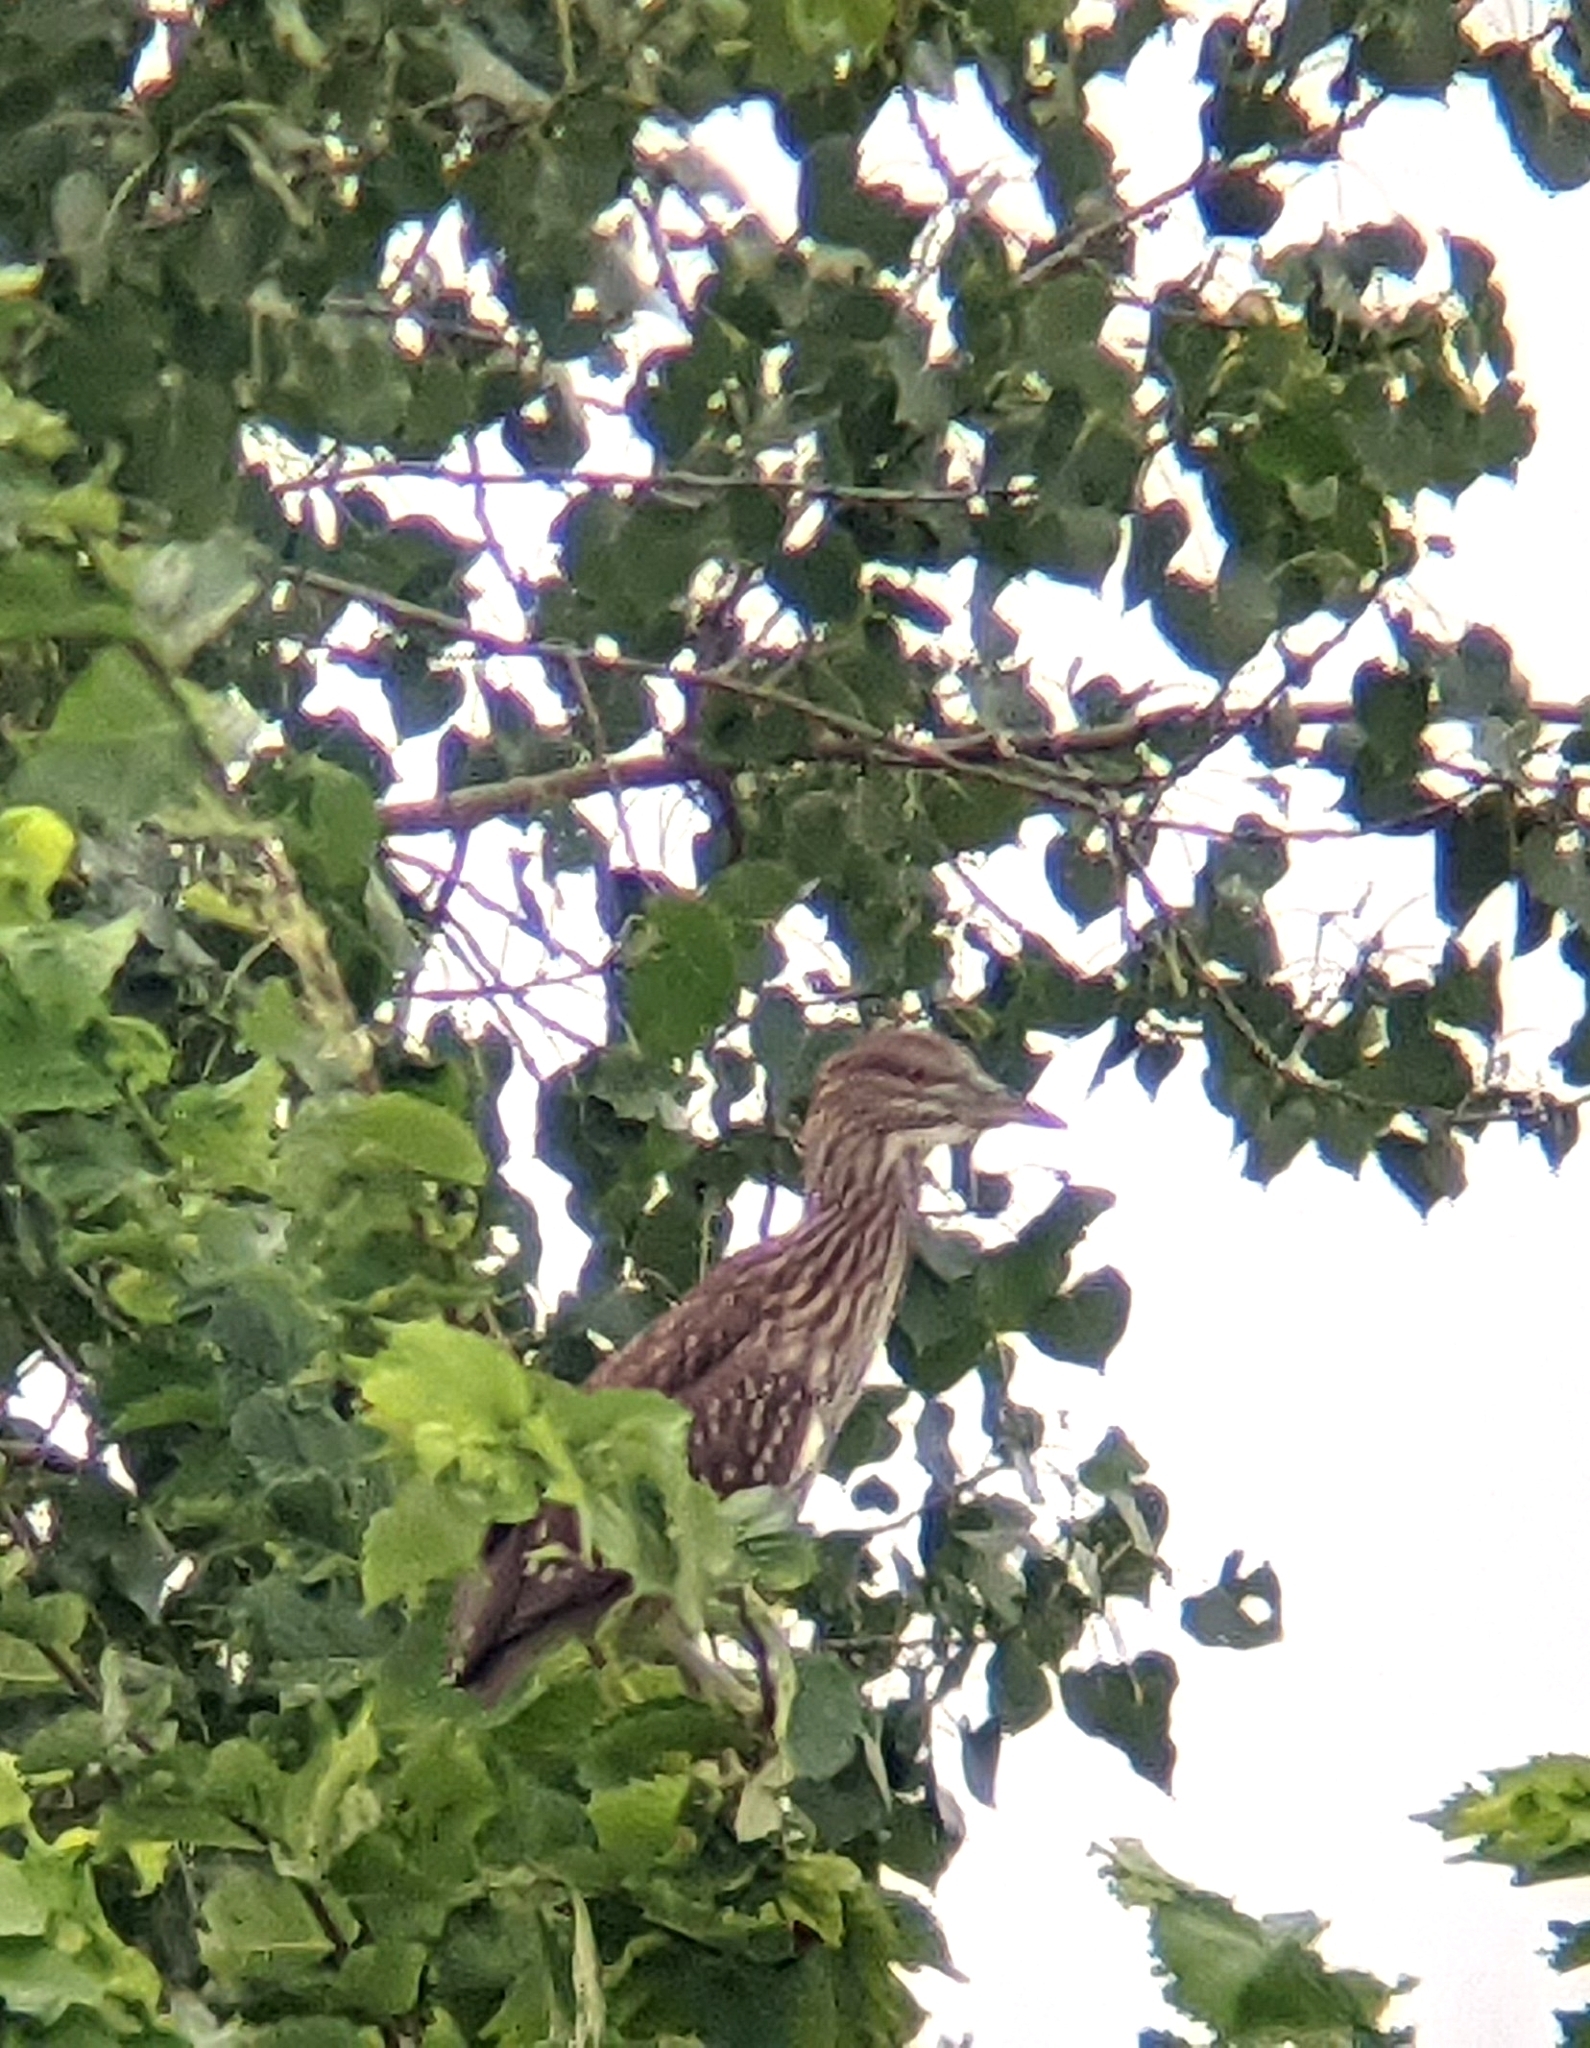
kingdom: Animalia
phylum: Chordata
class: Aves
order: Pelecaniformes
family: Ardeidae
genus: Nycticorax
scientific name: Nycticorax nycticorax
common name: Black-crowned night heron
